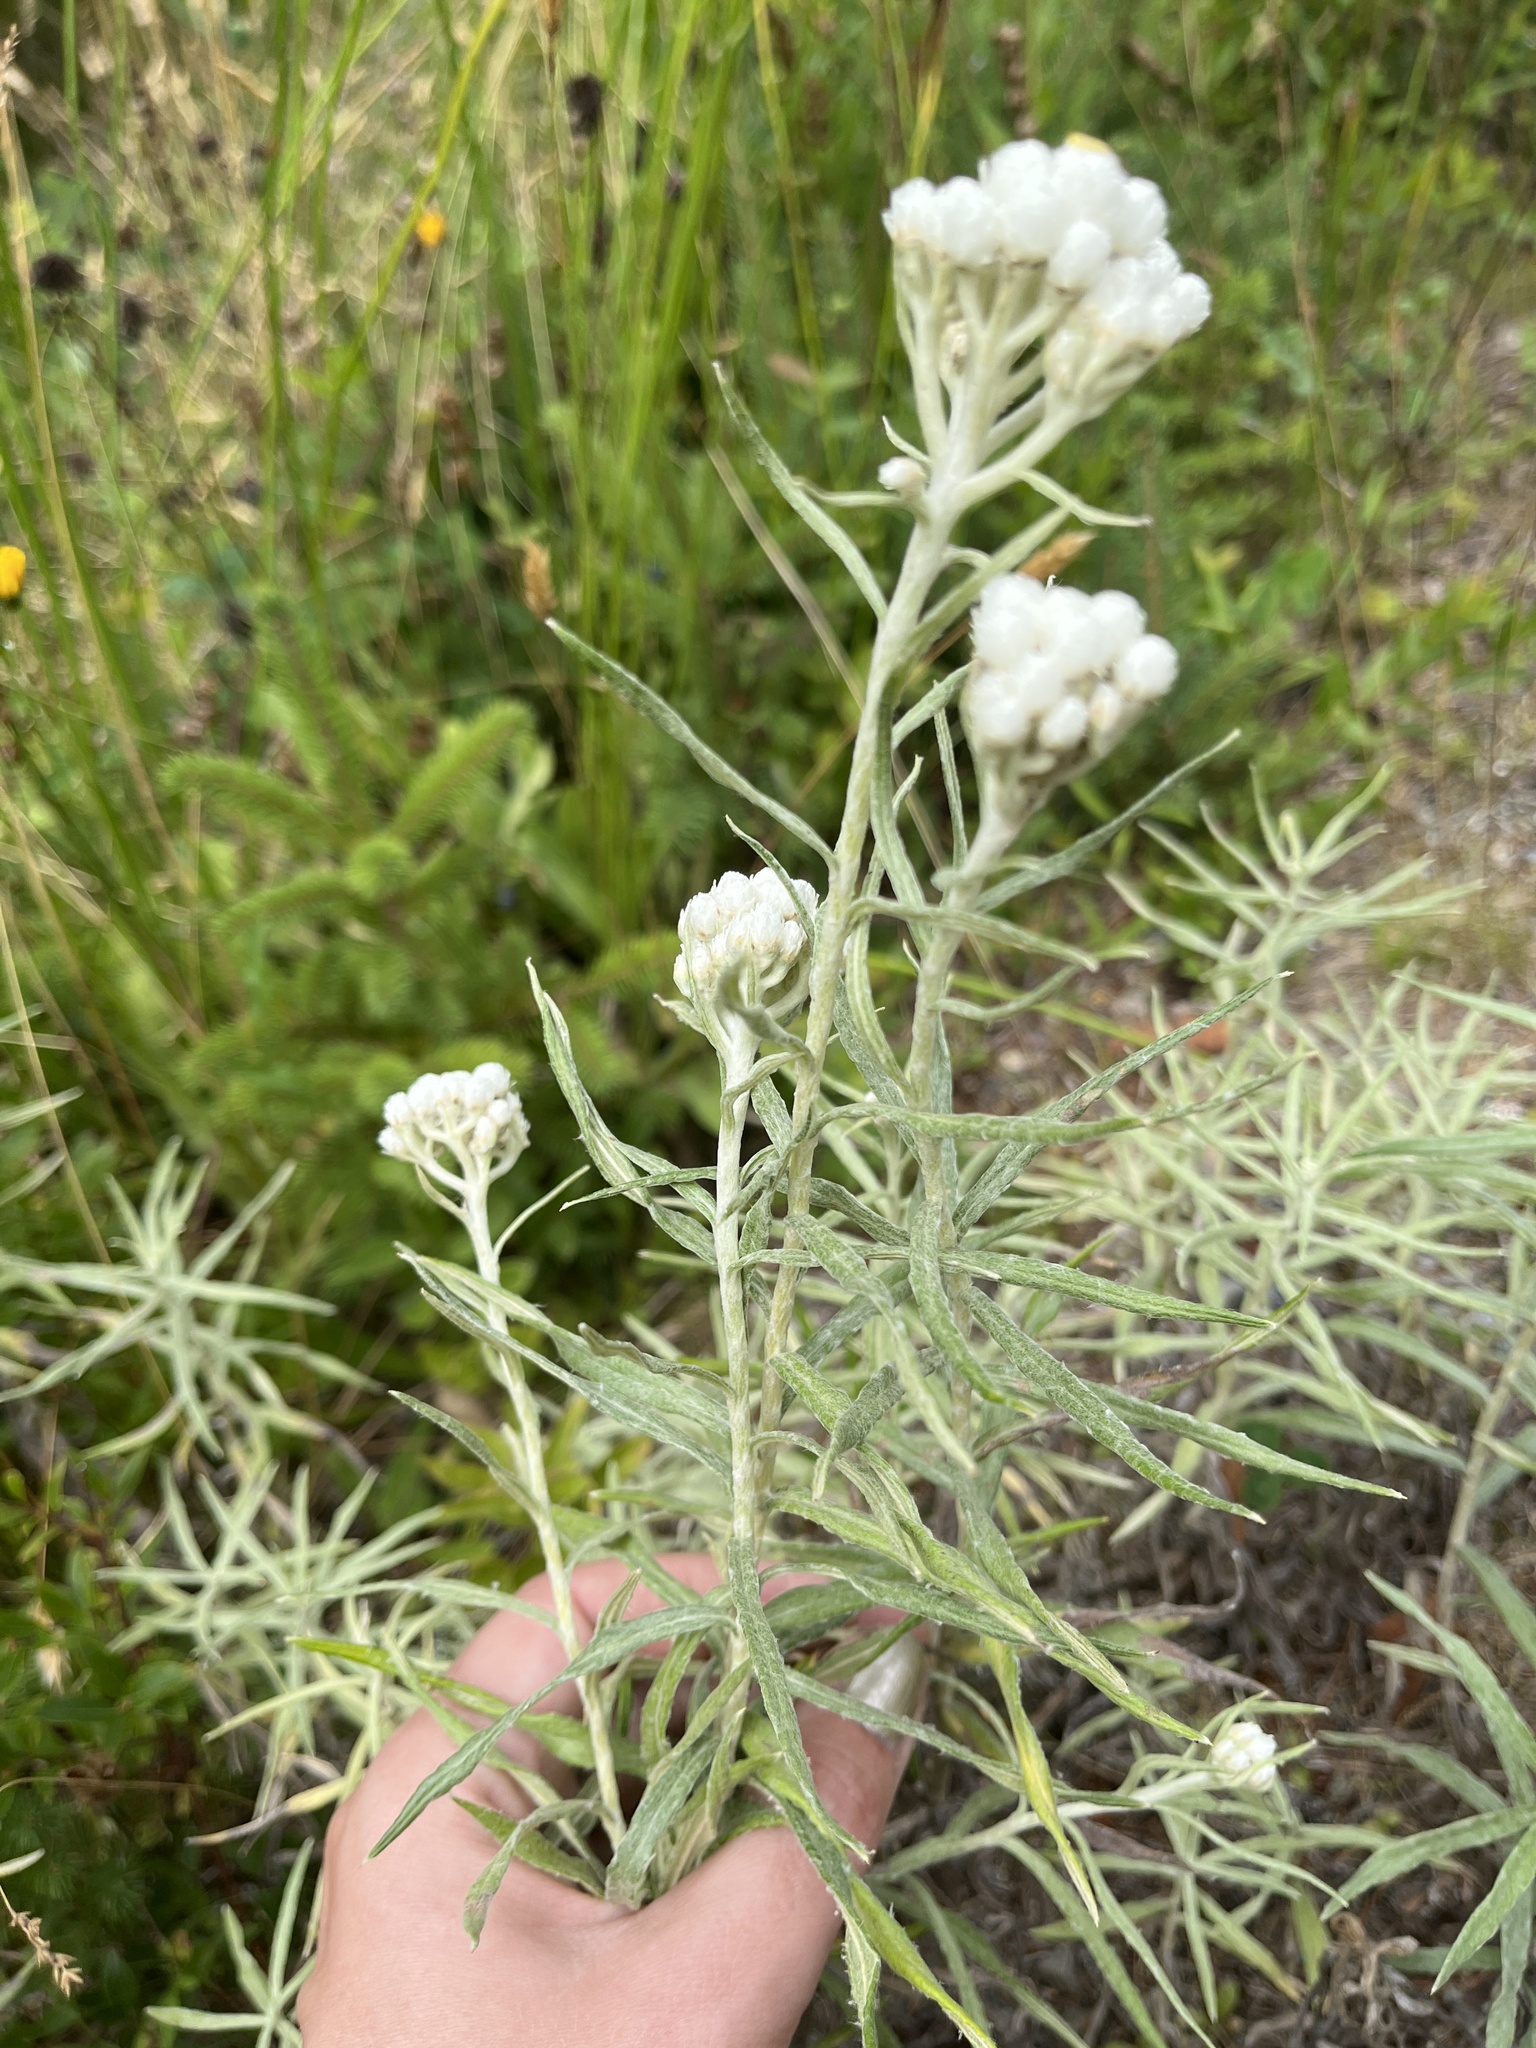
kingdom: Plantae
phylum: Tracheophyta
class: Magnoliopsida
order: Asterales
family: Asteraceae
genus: Anaphalis
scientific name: Anaphalis margaritacea
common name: Pearly everlasting
